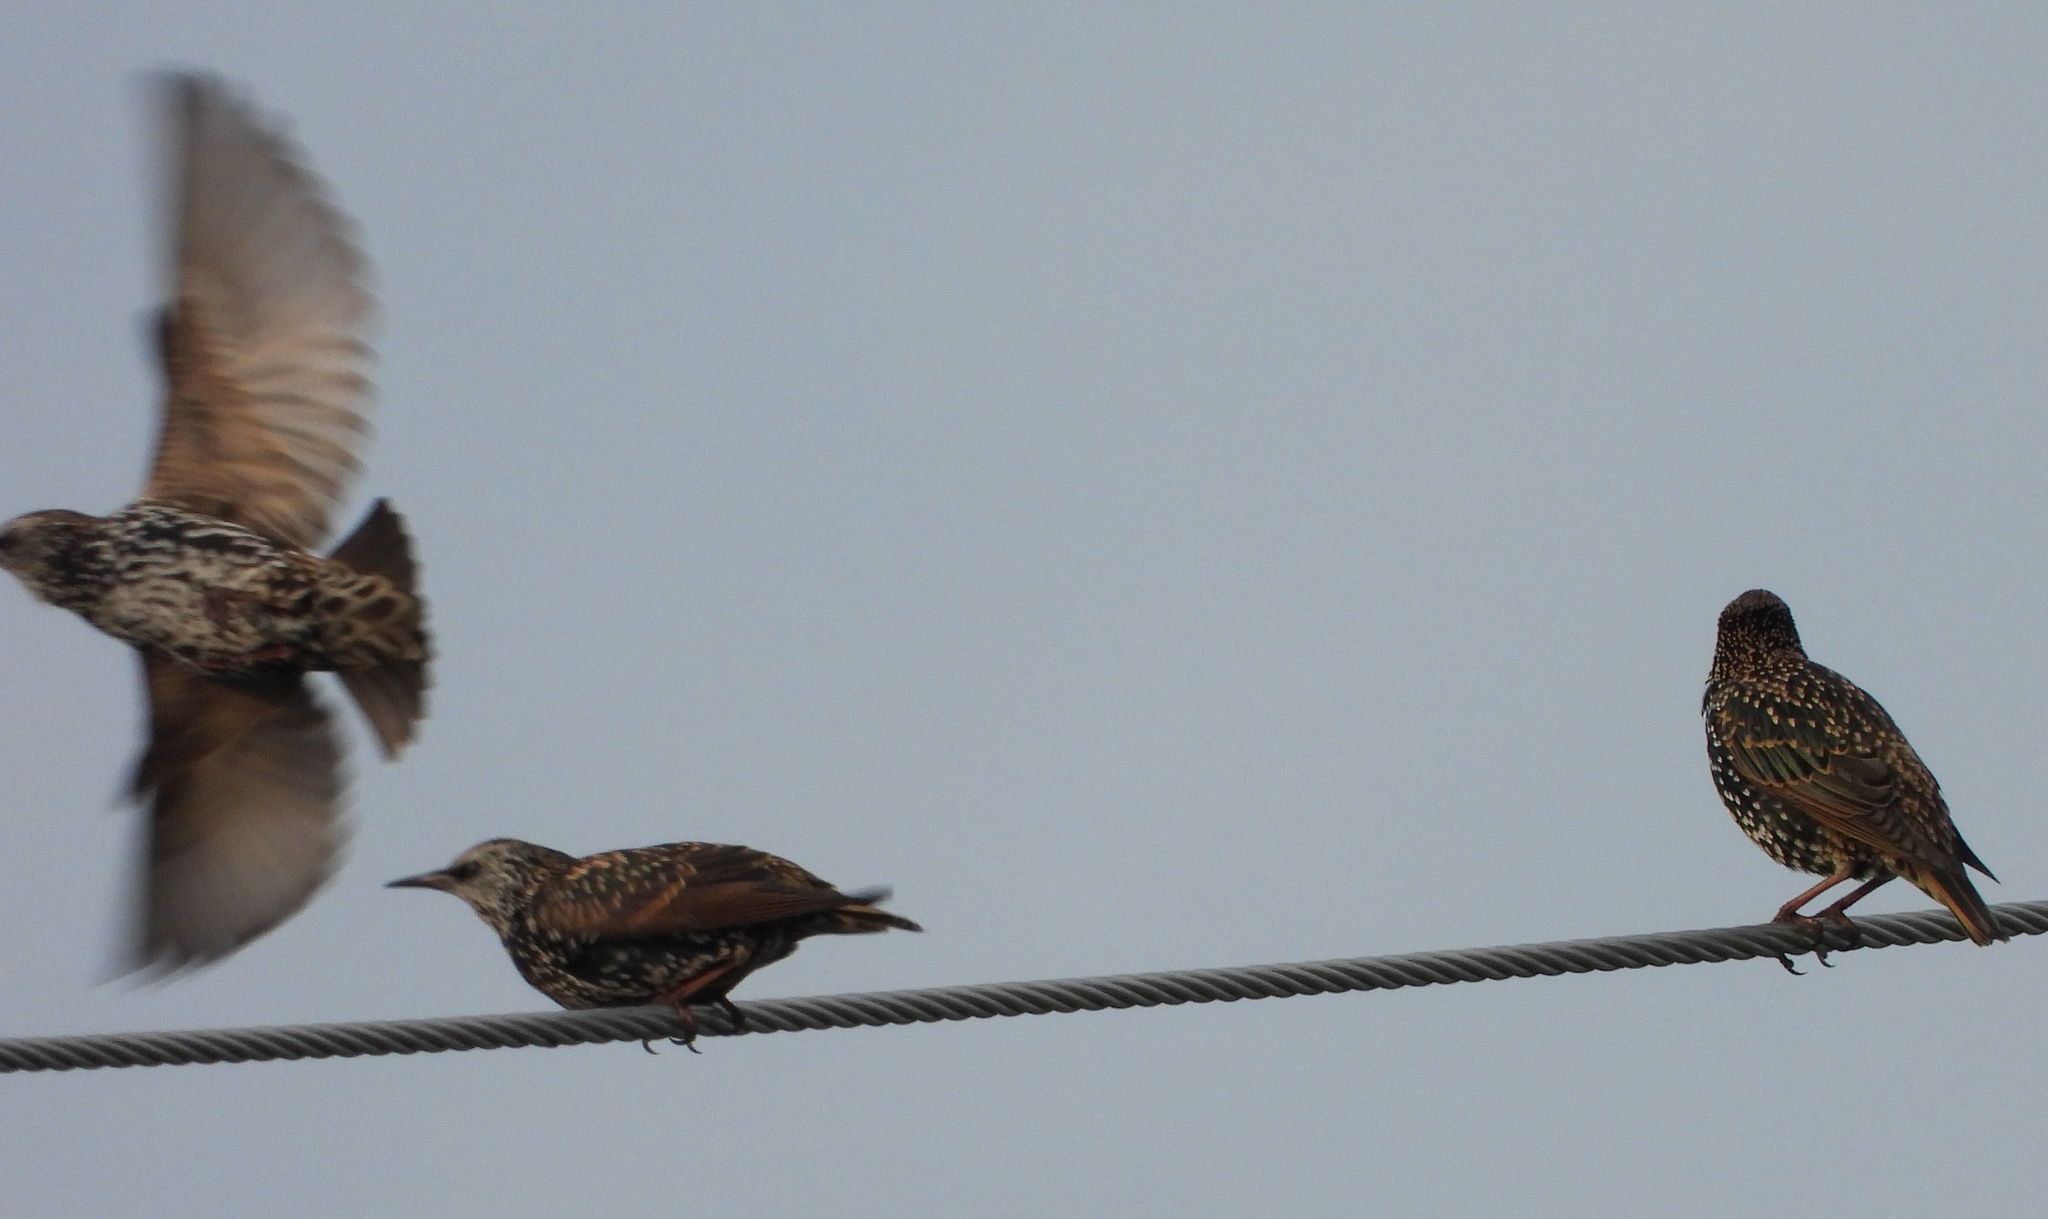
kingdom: Animalia
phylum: Chordata
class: Aves
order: Passeriformes
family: Sturnidae
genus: Sturnus
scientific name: Sturnus vulgaris
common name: Common starling
